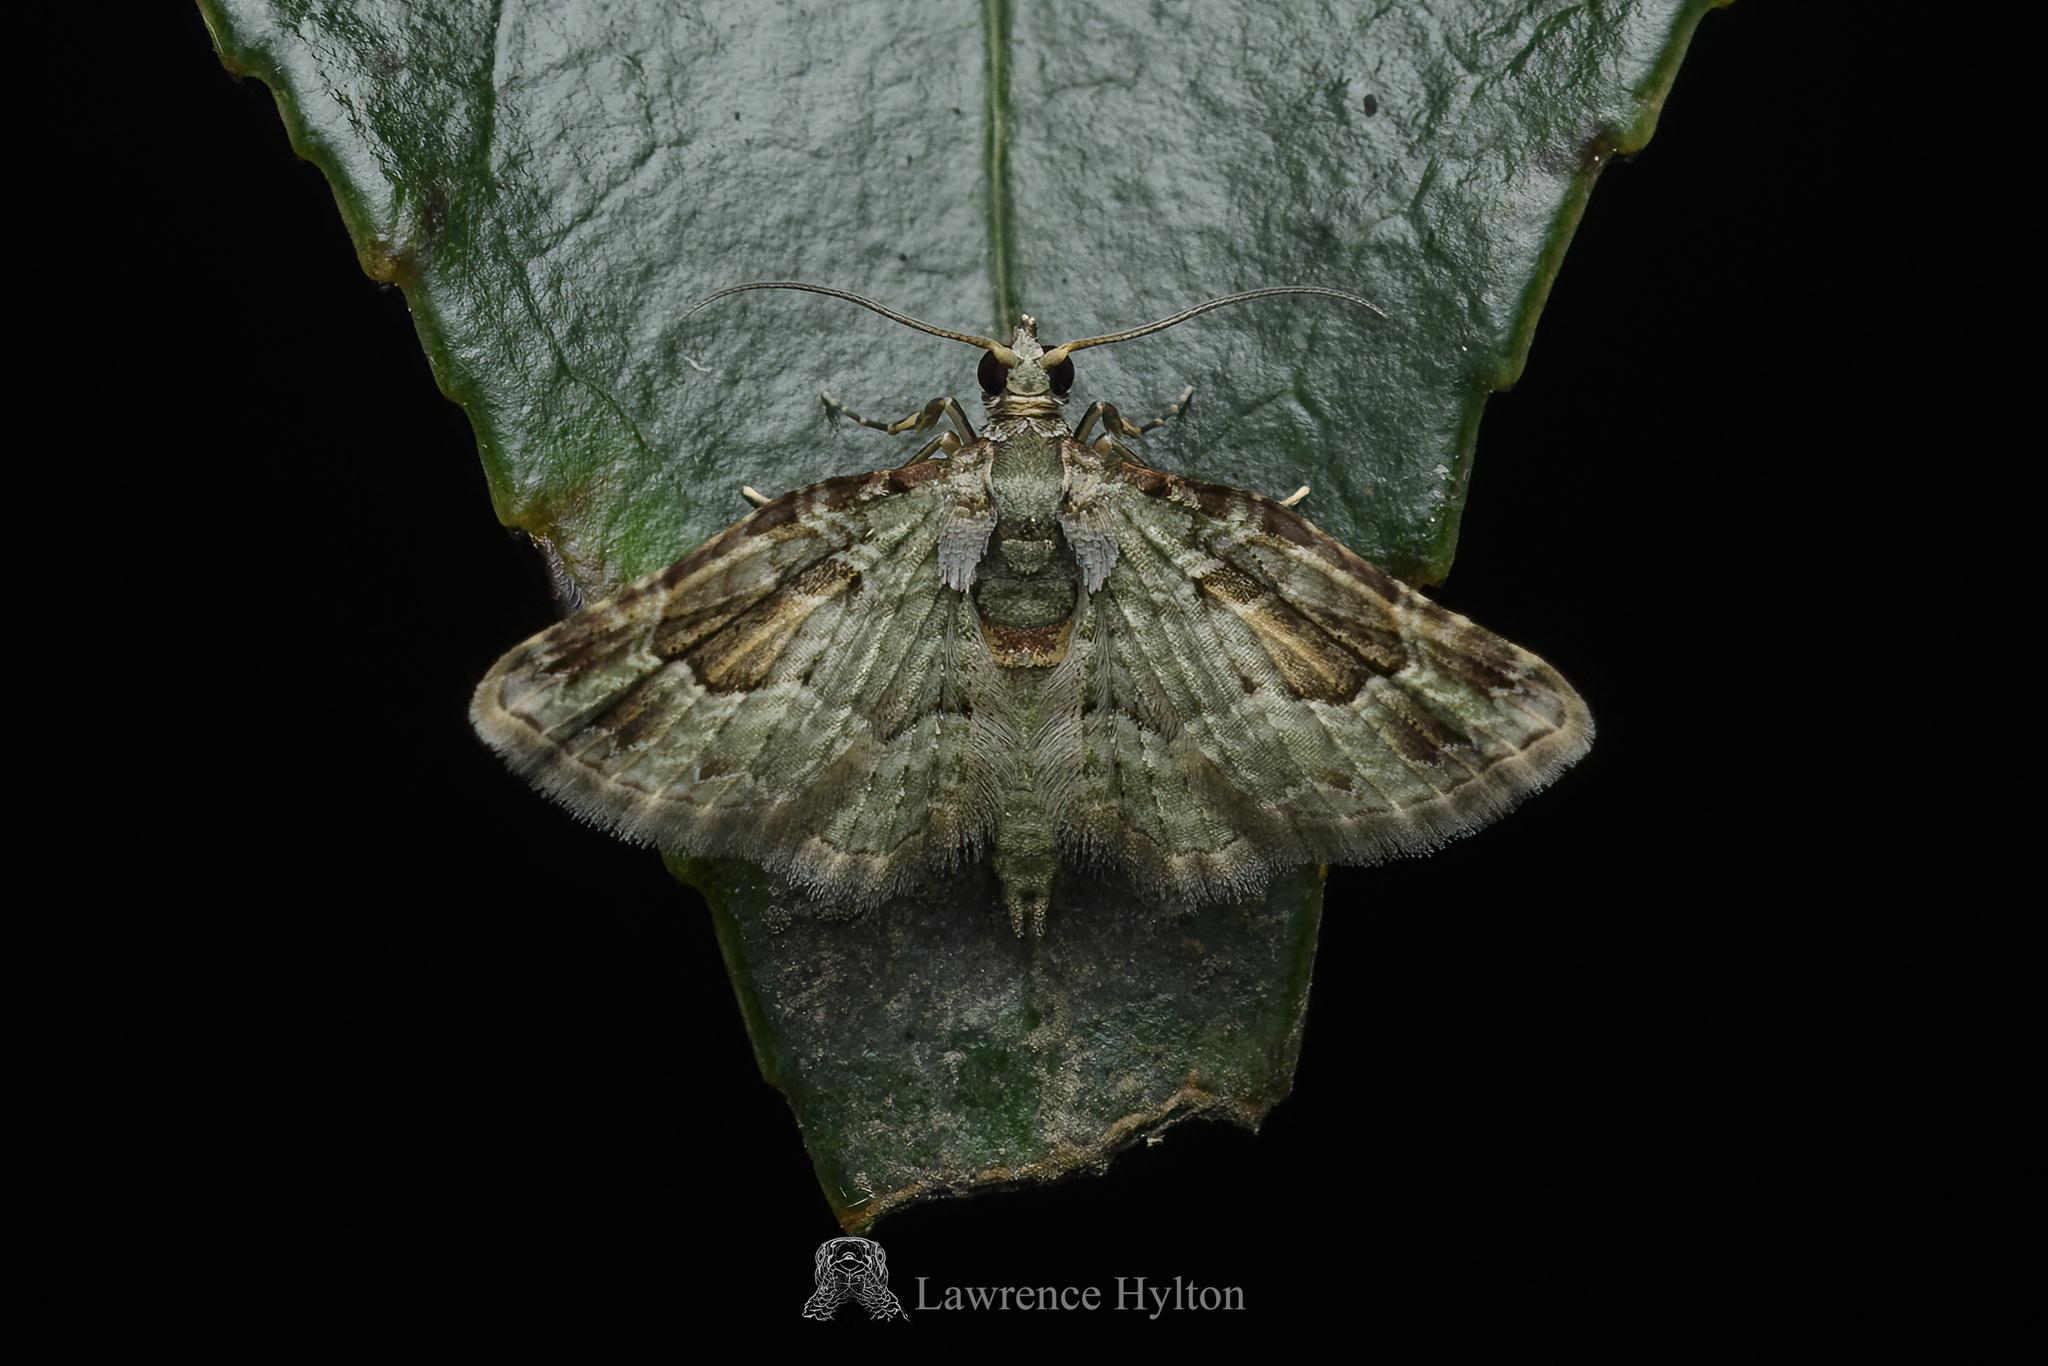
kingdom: Animalia
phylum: Arthropoda
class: Insecta
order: Lepidoptera
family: Geometridae
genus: Calluga
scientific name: Calluga costalis
